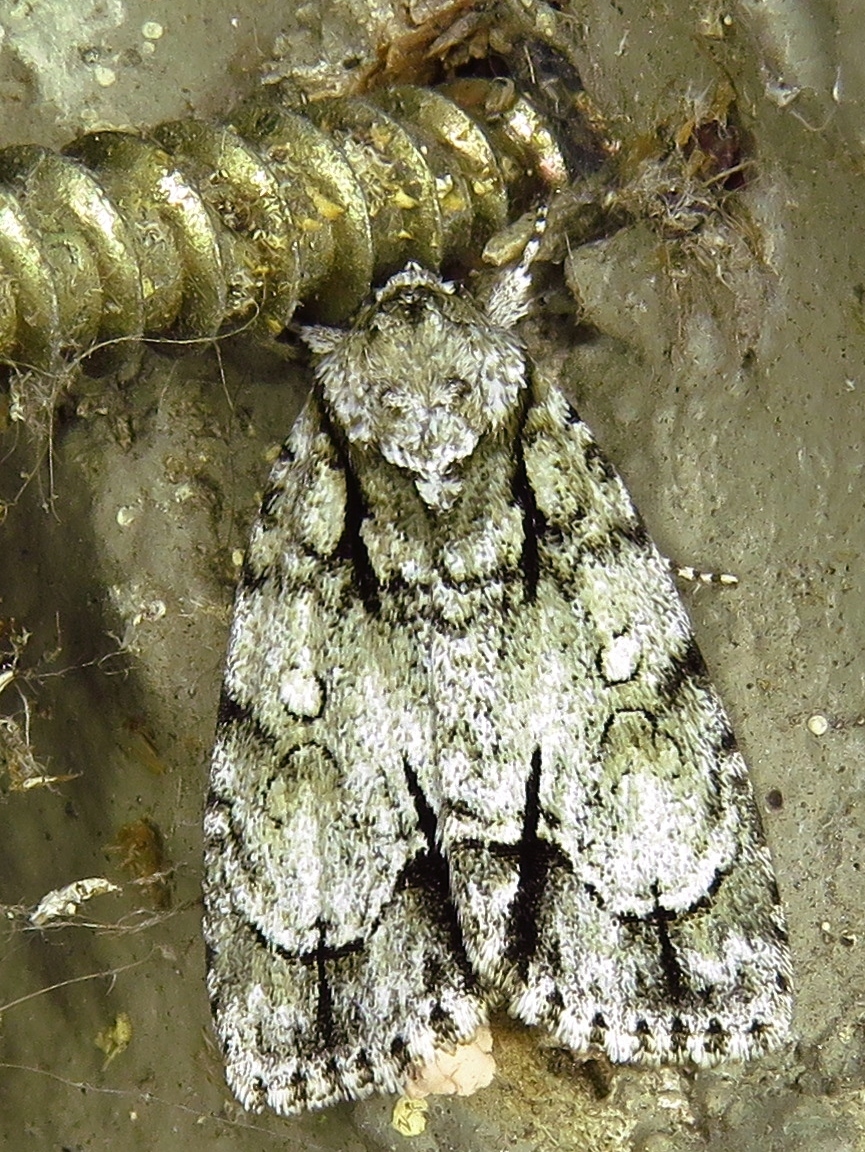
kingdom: Animalia
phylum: Arthropoda
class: Insecta
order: Lepidoptera
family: Noctuidae
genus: Acronicta
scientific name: Acronicta vinnula
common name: Delightful dagger
